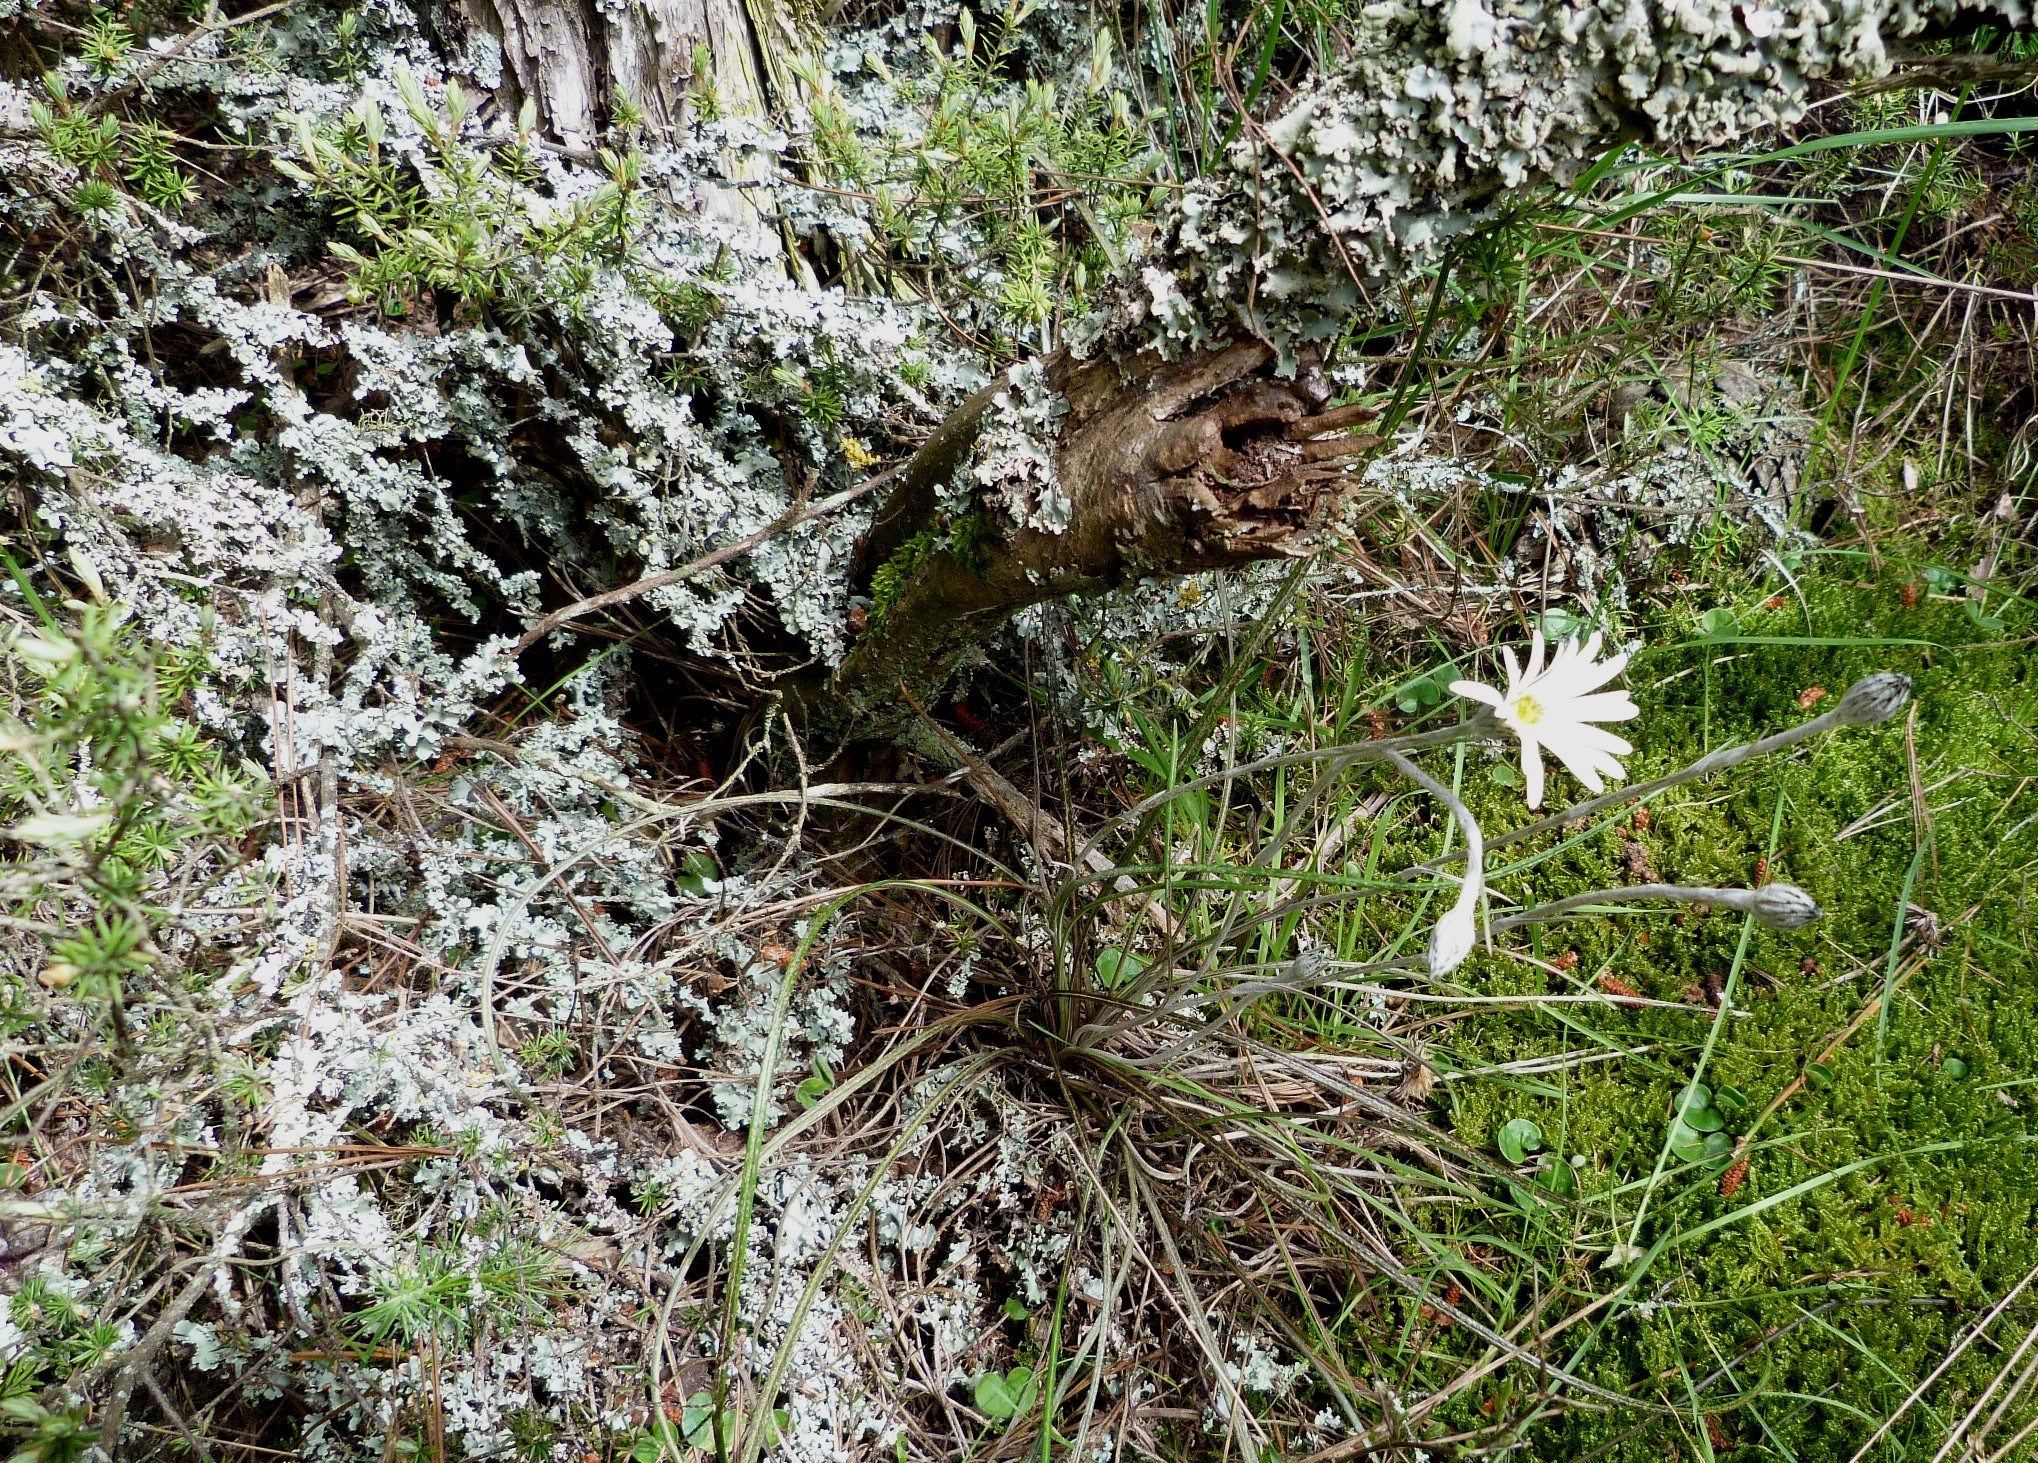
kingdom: Plantae
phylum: Tracheophyta
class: Magnoliopsida
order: Asterales
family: Asteraceae
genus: Celmisia
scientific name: Celmisia gracilenta
